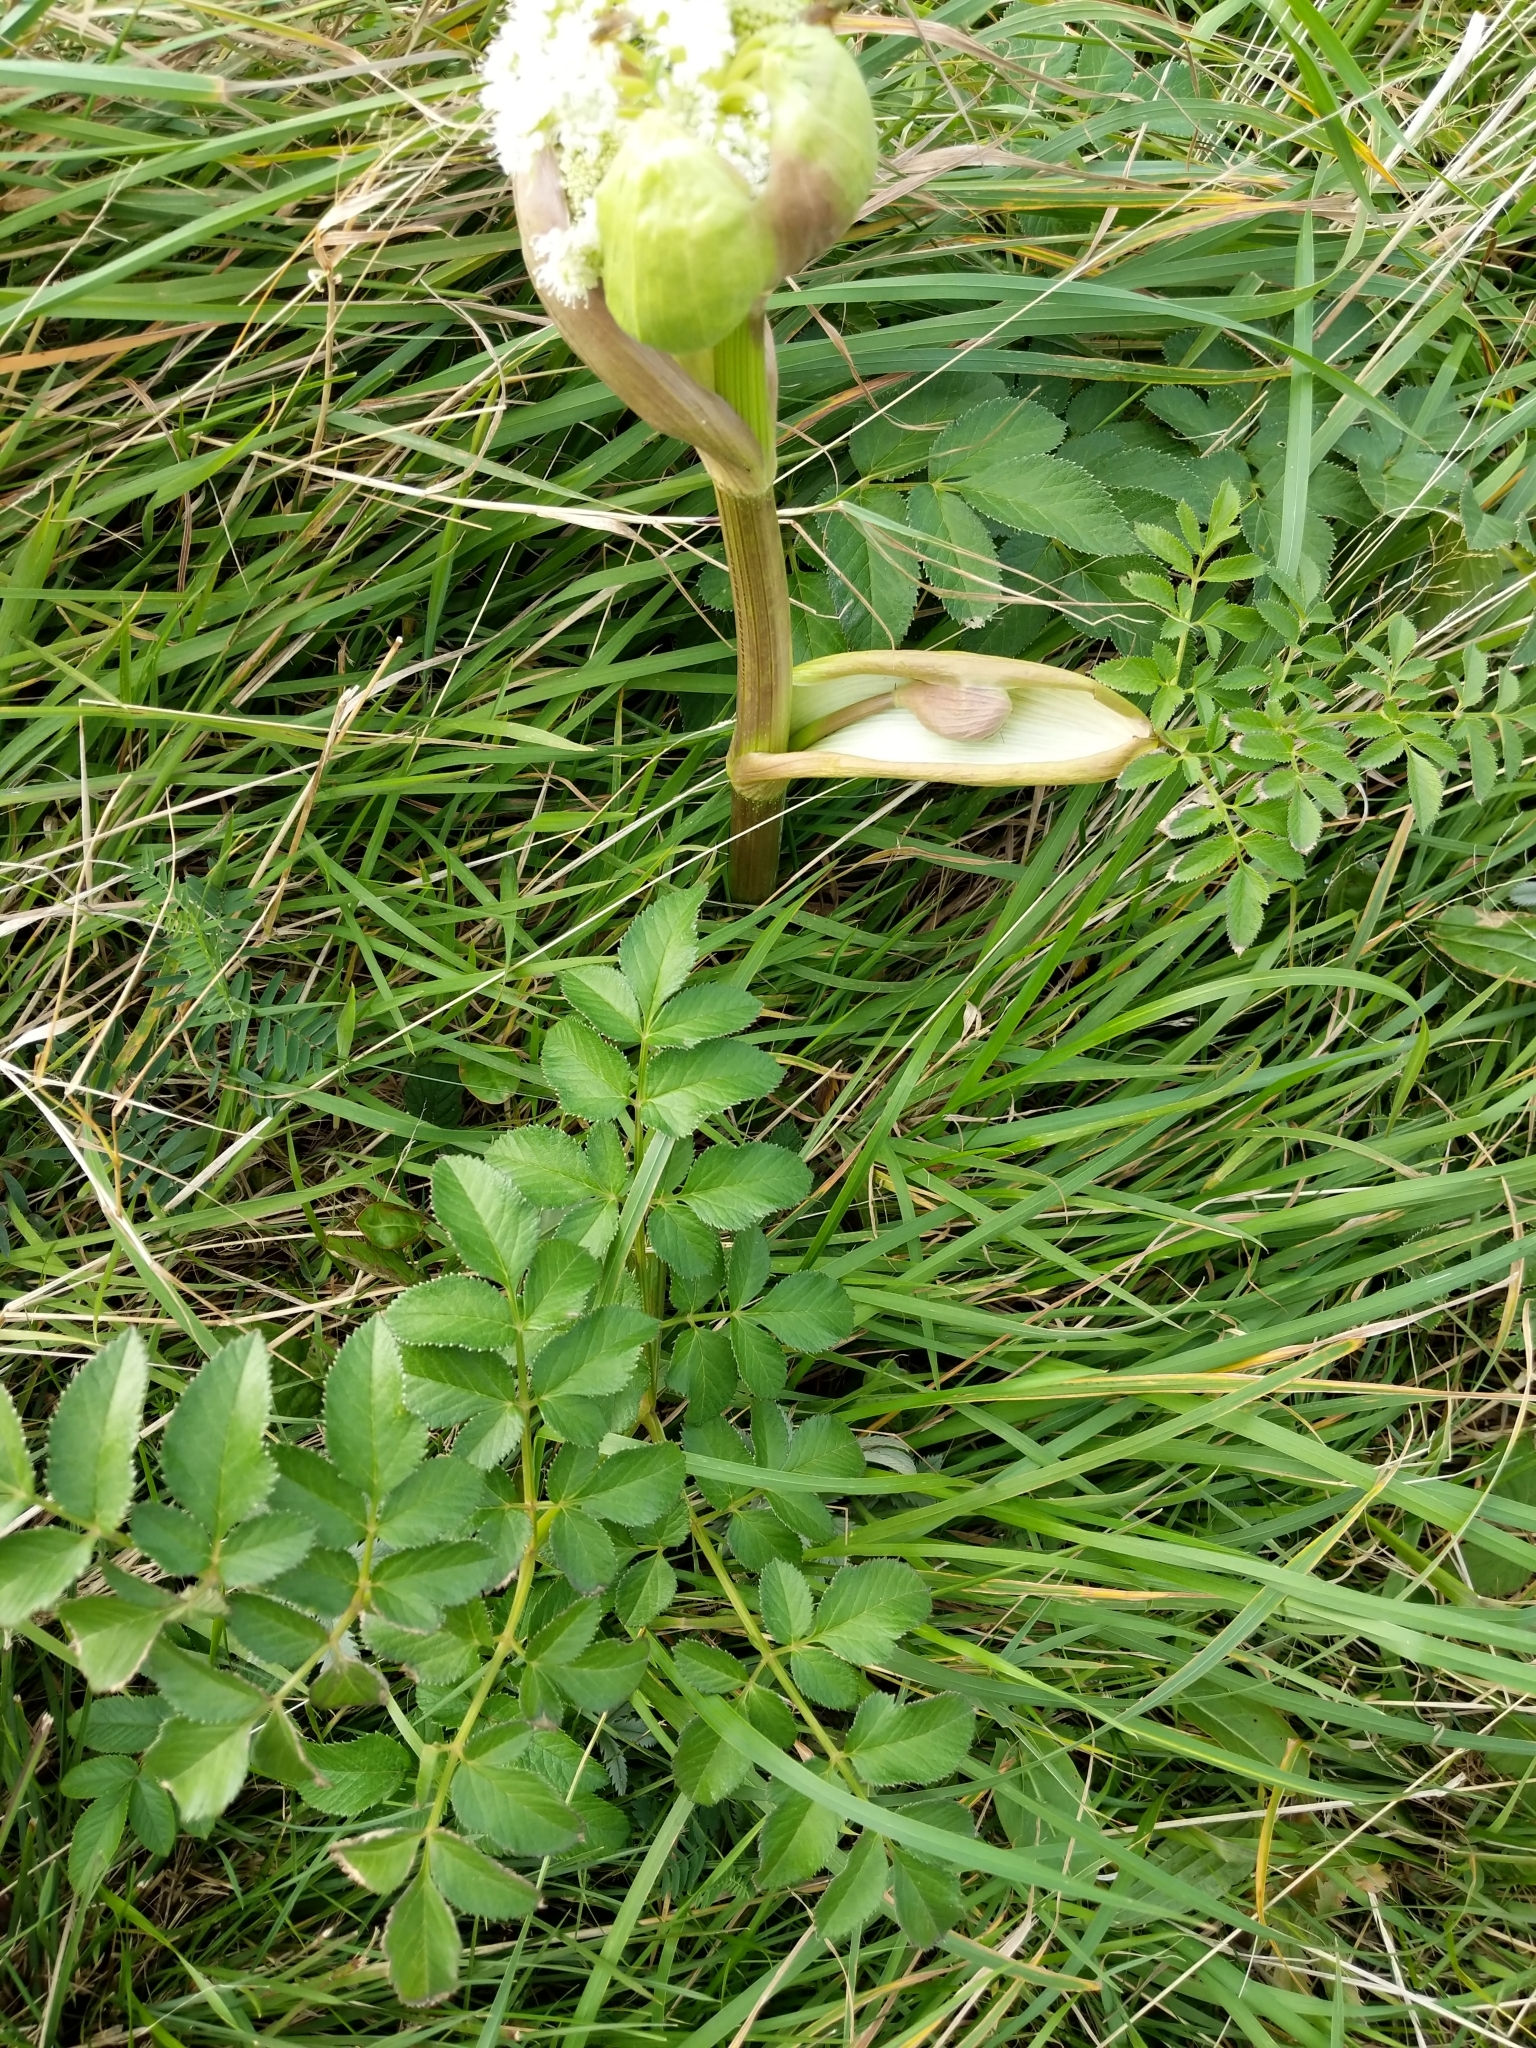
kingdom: Plantae
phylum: Tracheophyta
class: Magnoliopsida
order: Apiales
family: Apiaceae
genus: Angelica
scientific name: Angelica sylvestris
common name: Wild angelica
